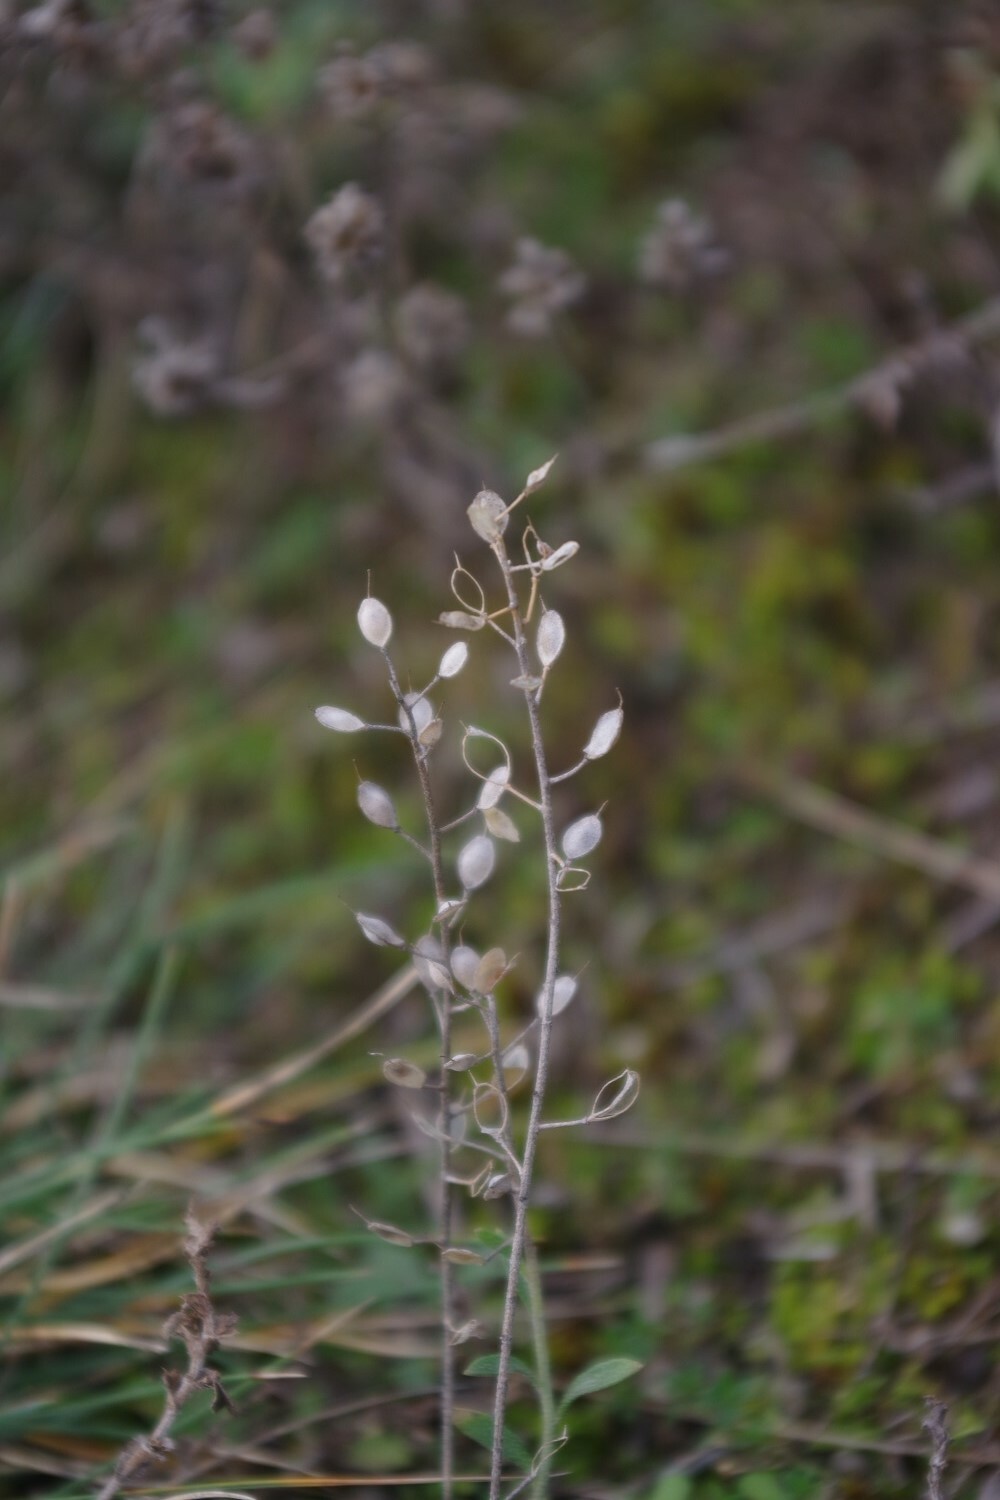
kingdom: Plantae
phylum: Tracheophyta
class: Magnoliopsida
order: Brassicales
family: Brassicaceae
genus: Alyssum
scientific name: Alyssum gmelinii
